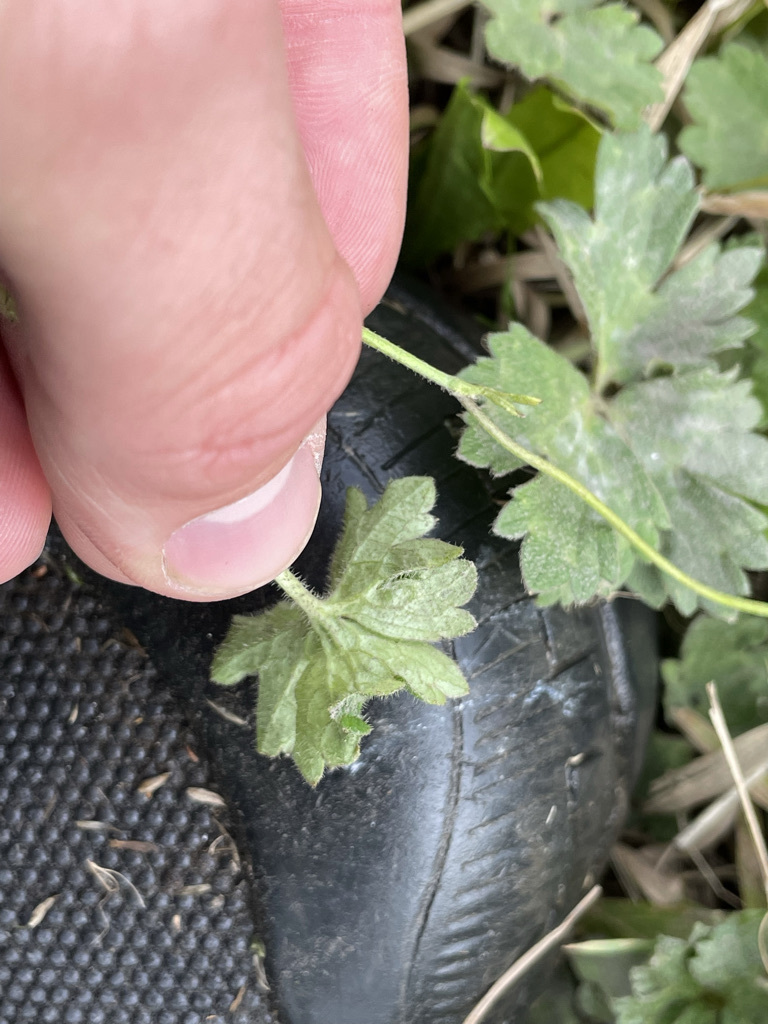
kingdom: Plantae
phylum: Tracheophyta
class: Magnoliopsida
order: Ranunculales
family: Ranunculaceae
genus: Ranunculus
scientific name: Ranunculus repens
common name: Creeping buttercup
